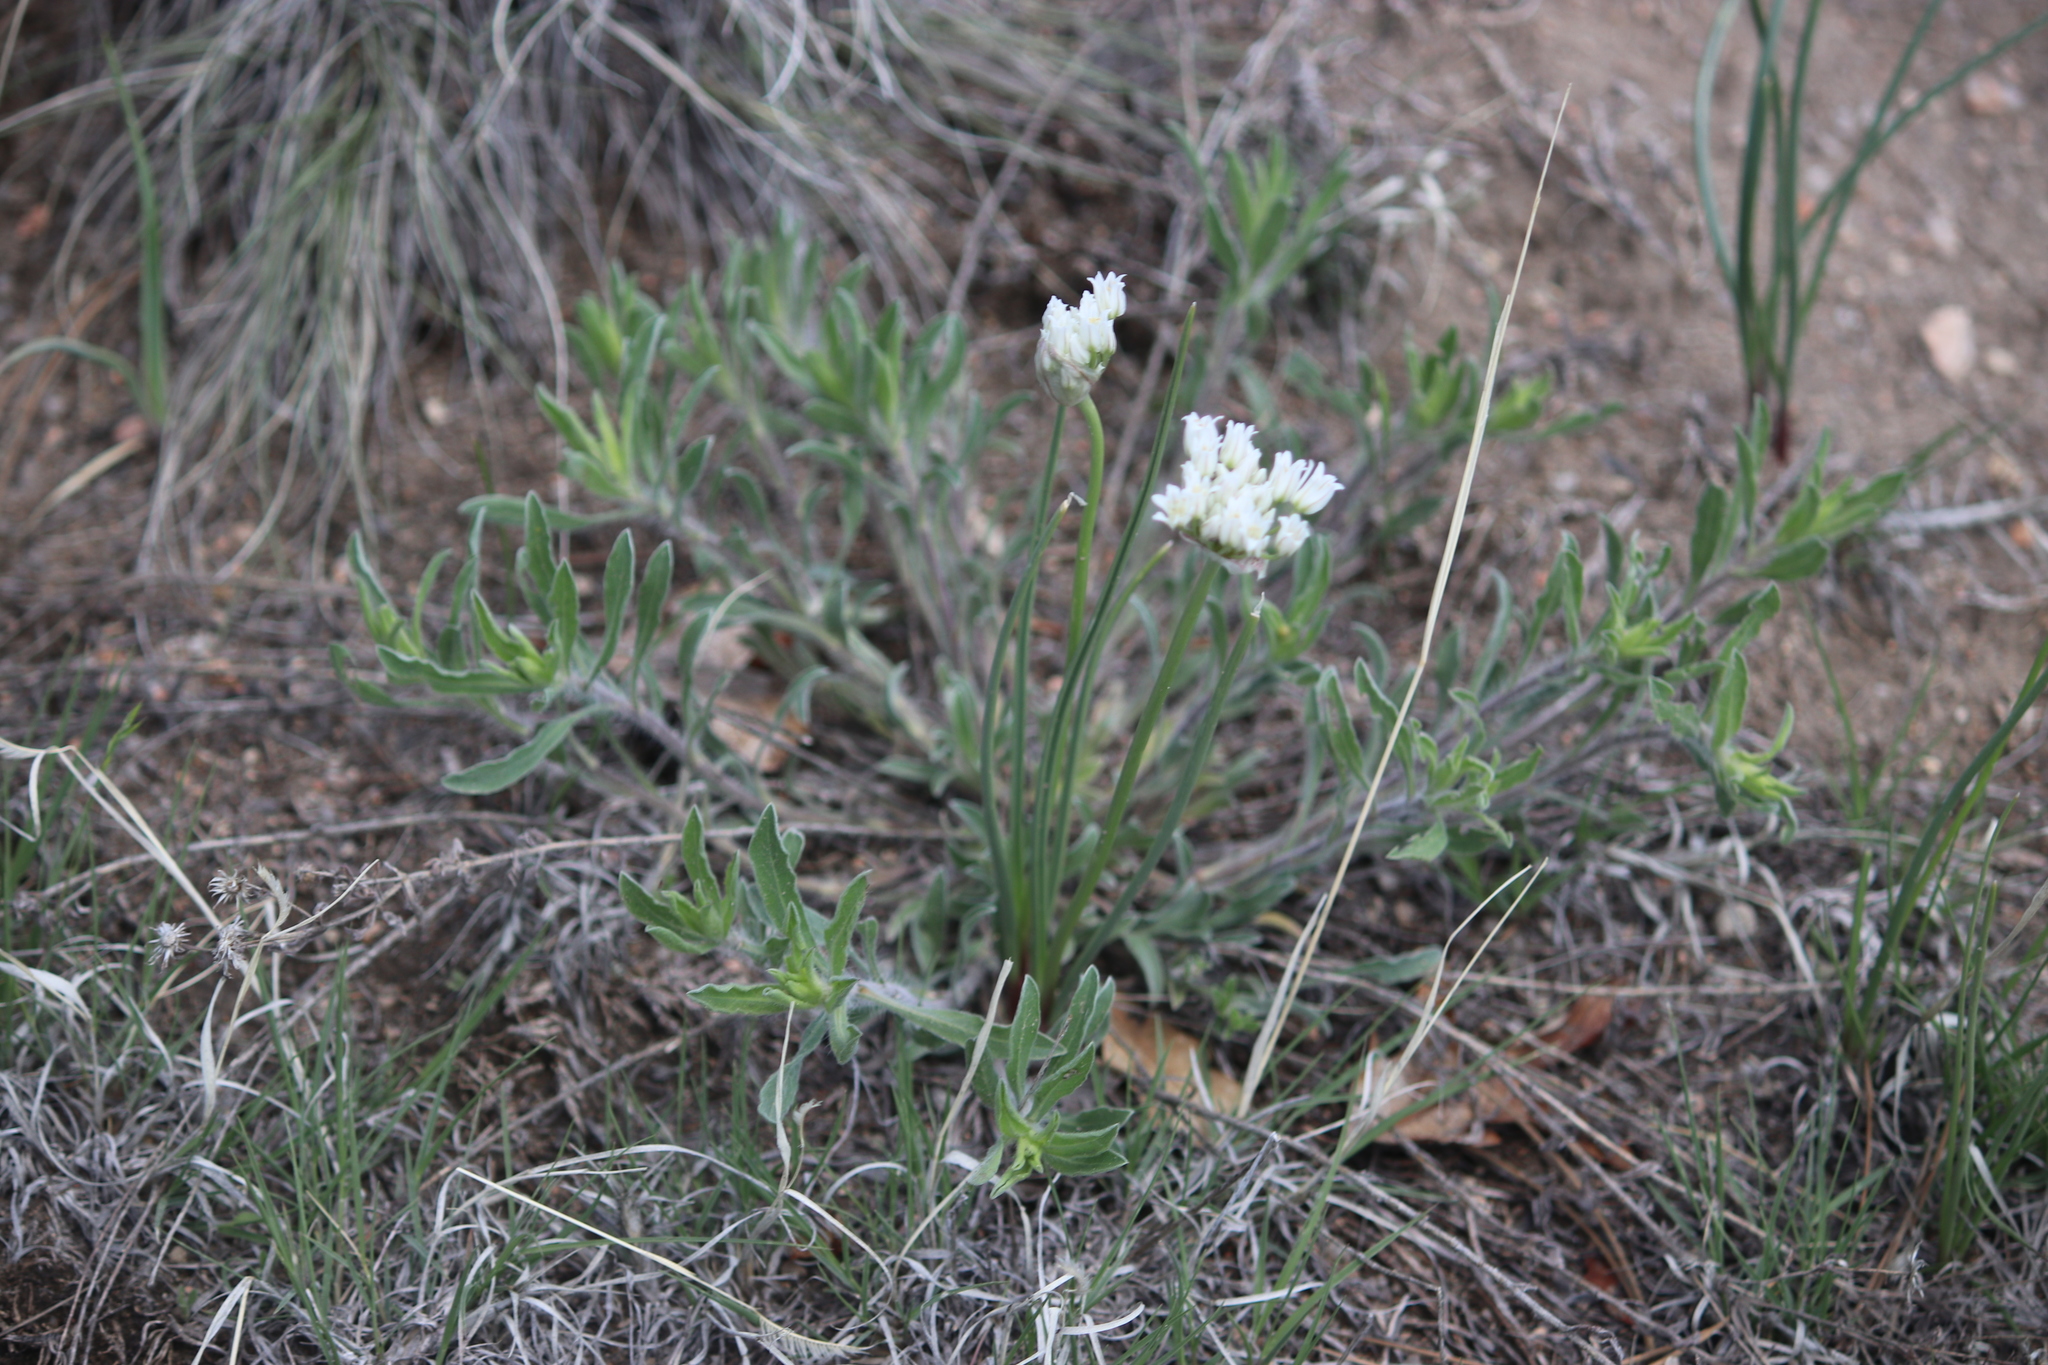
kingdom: Plantae
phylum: Tracheophyta
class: Liliopsida
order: Asparagales
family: Amaryllidaceae
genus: Allium
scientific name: Allium textile
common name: Prairie onion
